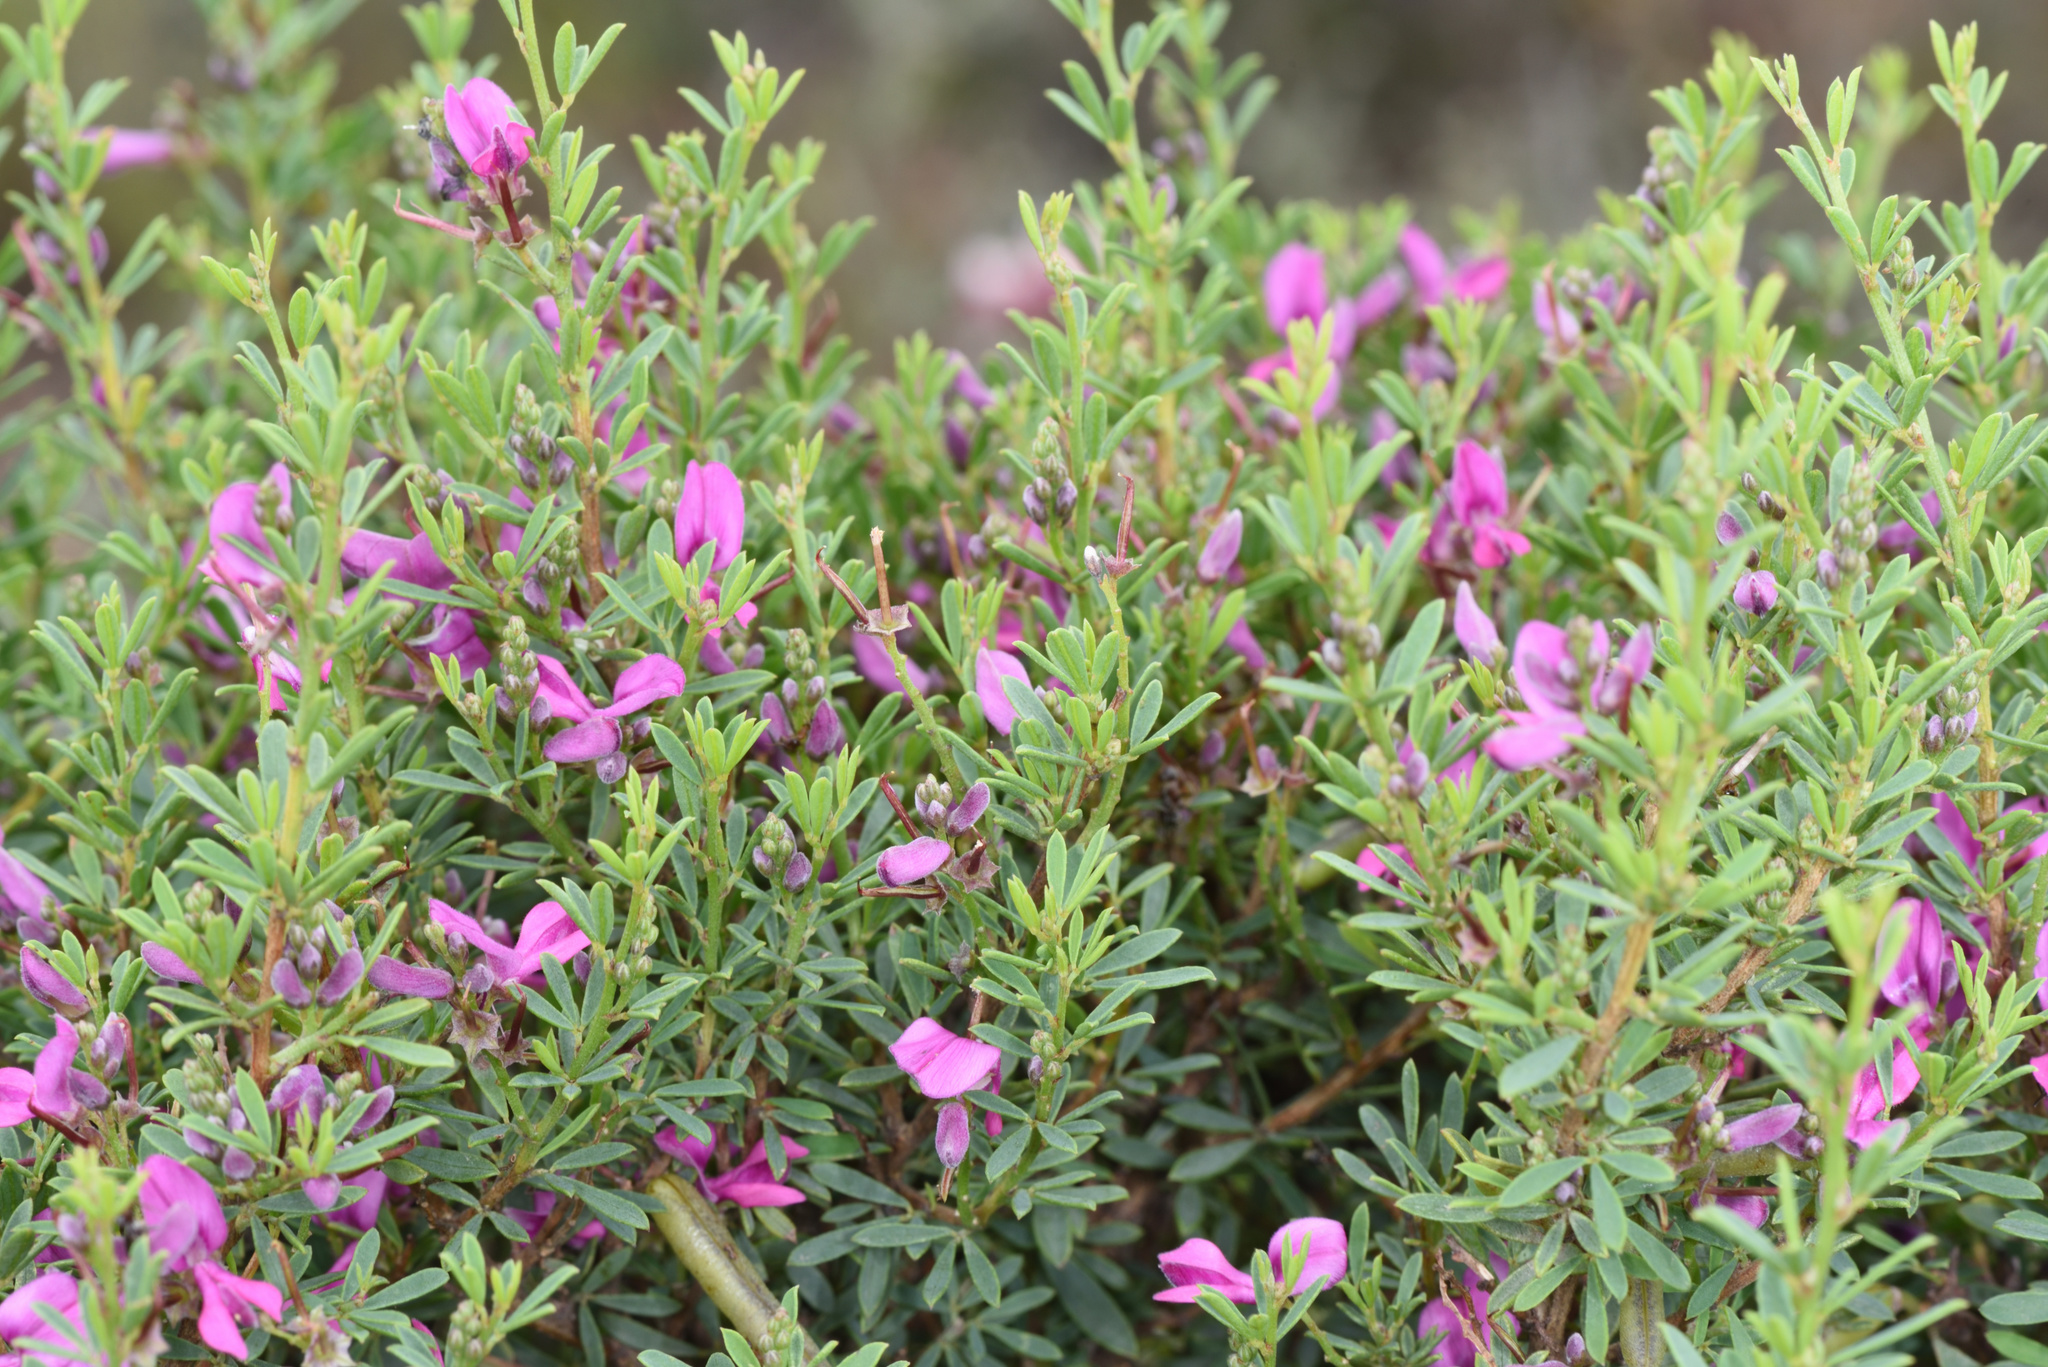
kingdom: Plantae
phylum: Tracheophyta
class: Magnoliopsida
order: Fabales
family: Fabaceae
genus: Indigofera
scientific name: Indigofera denudata
